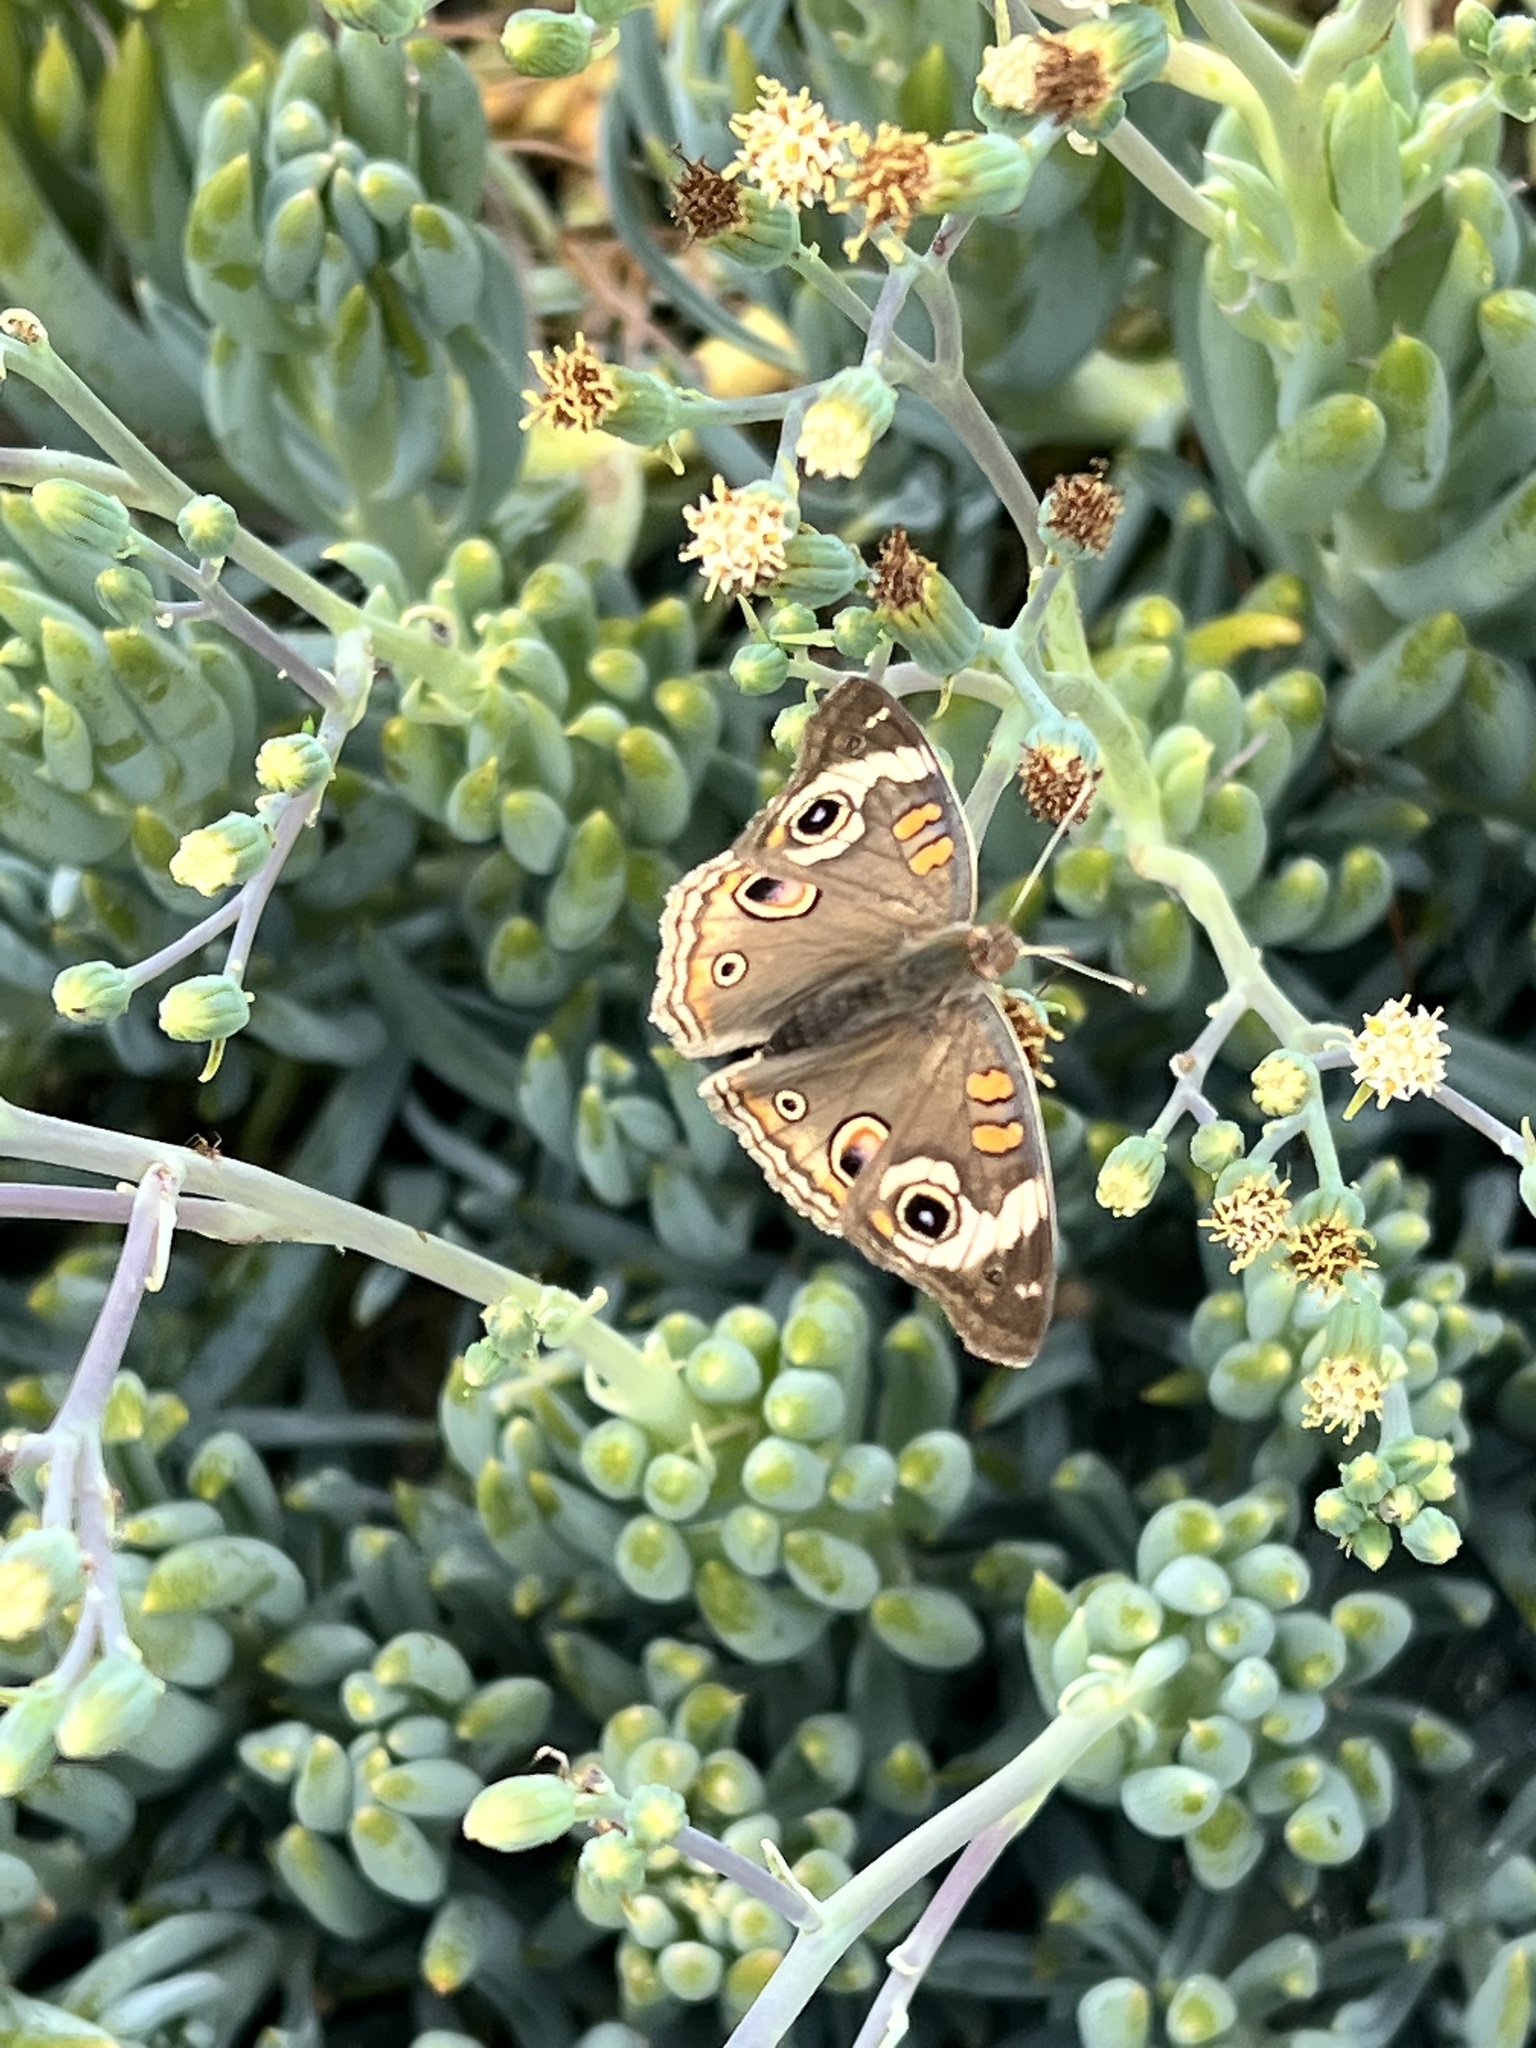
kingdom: Animalia
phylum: Arthropoda
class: Insecta
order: Lepidoptera
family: Nymphalidae
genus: Junonia
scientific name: Junonia grisea
